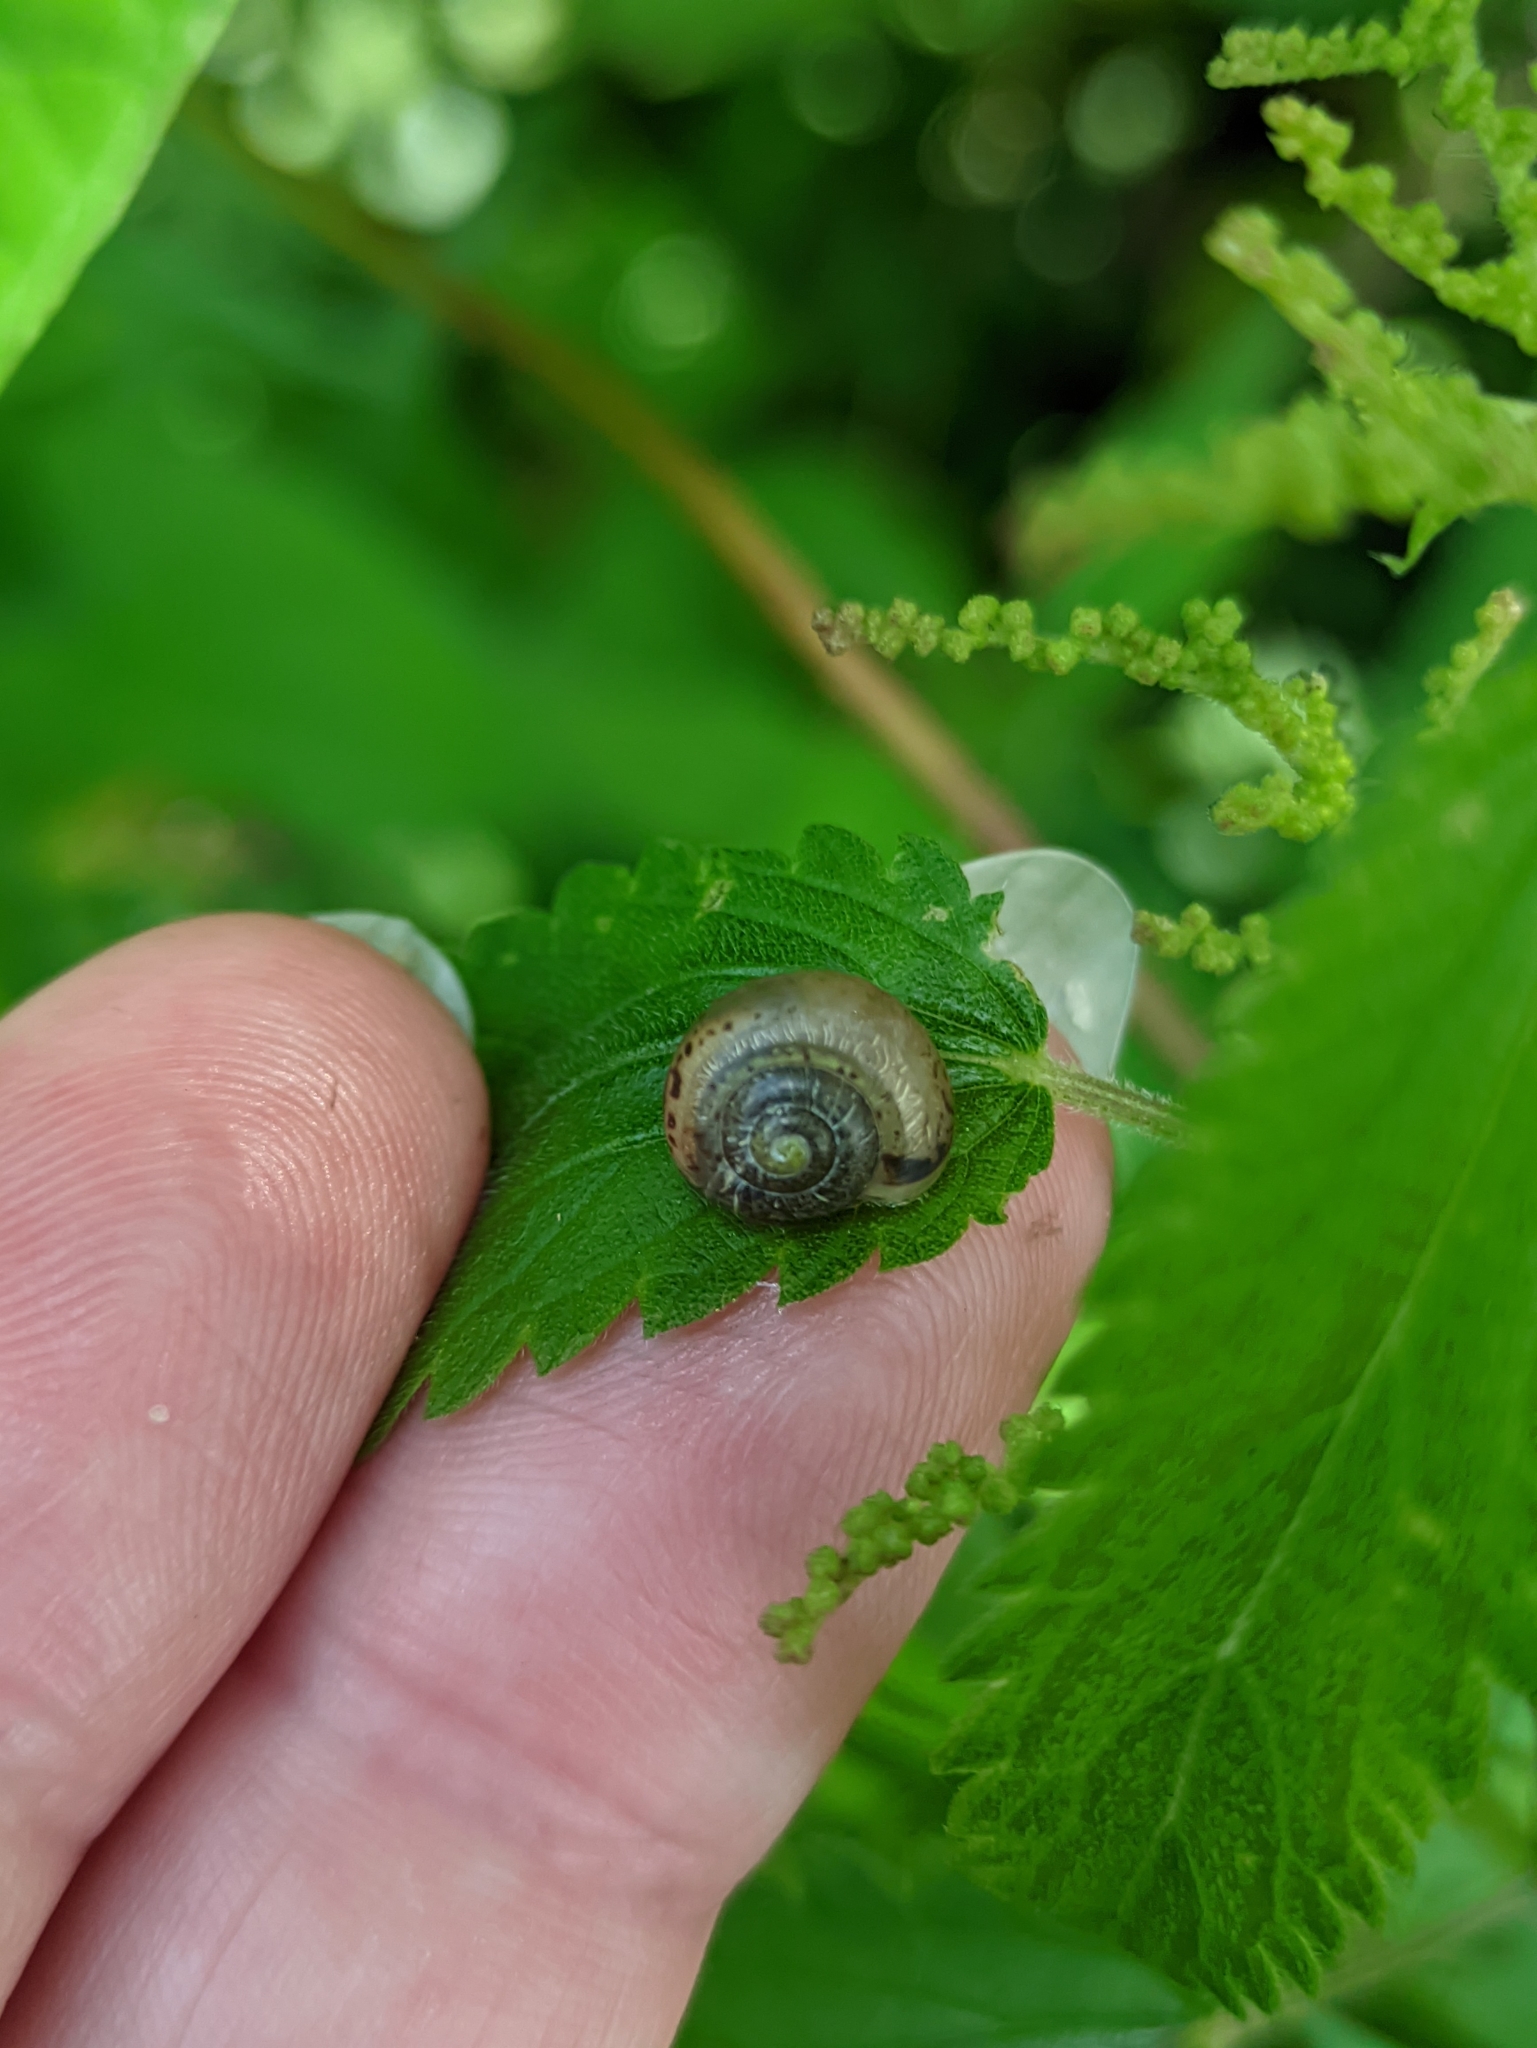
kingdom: Animalia
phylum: Mollusca
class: Gastropoda
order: Stylommatophora
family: Camaenidae
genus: Fruticicola
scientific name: Fruticicola fruticum
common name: Bush snail
